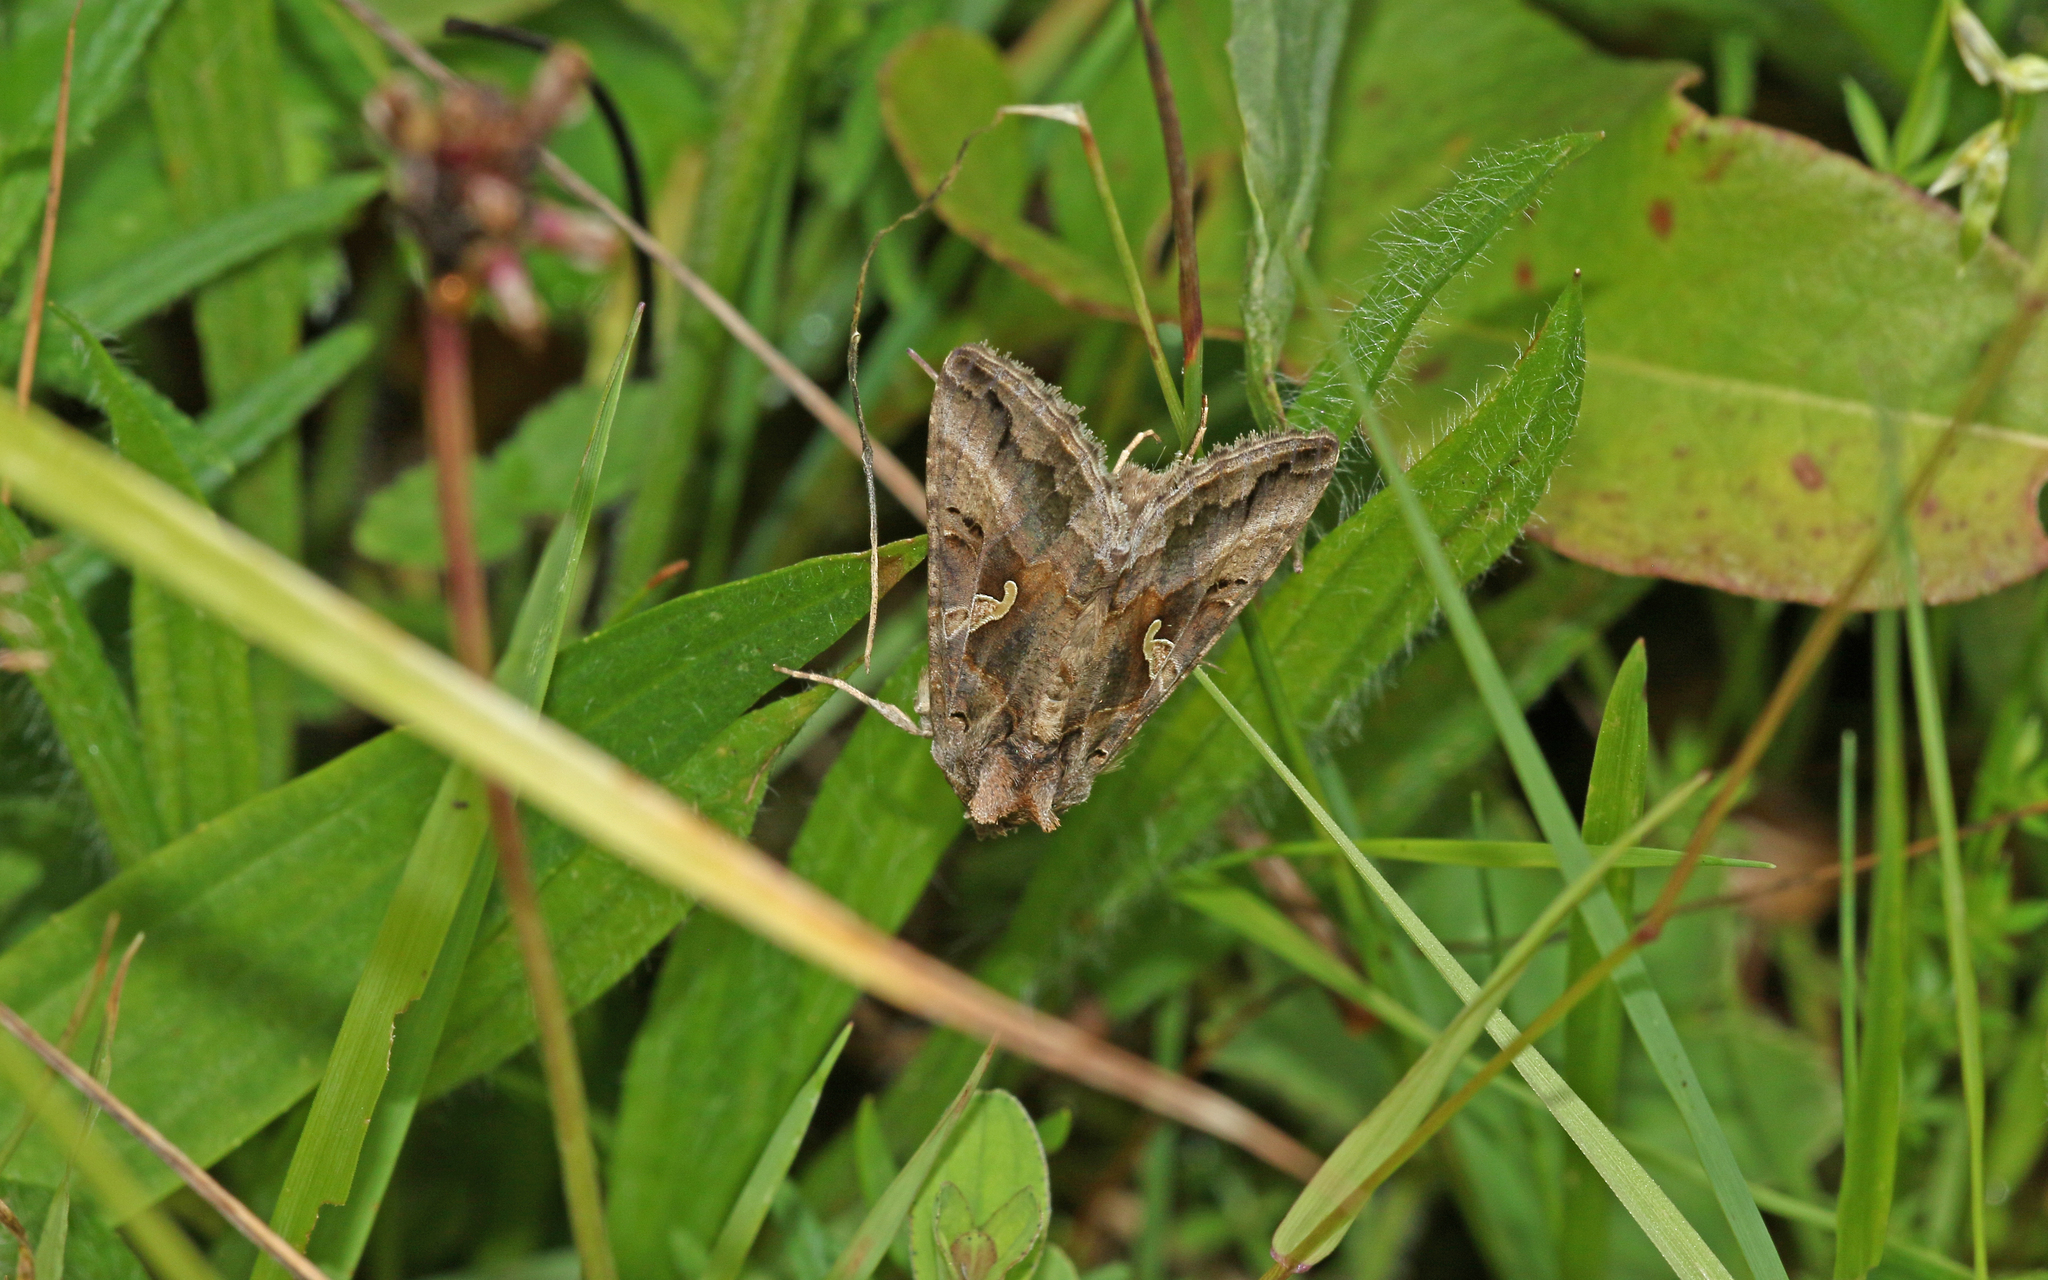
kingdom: Animalia
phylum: Arthropoda
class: Insecta
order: Lepidoptera
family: Noctuidae
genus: Autographa
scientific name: Autographa gamma
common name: Silver y
